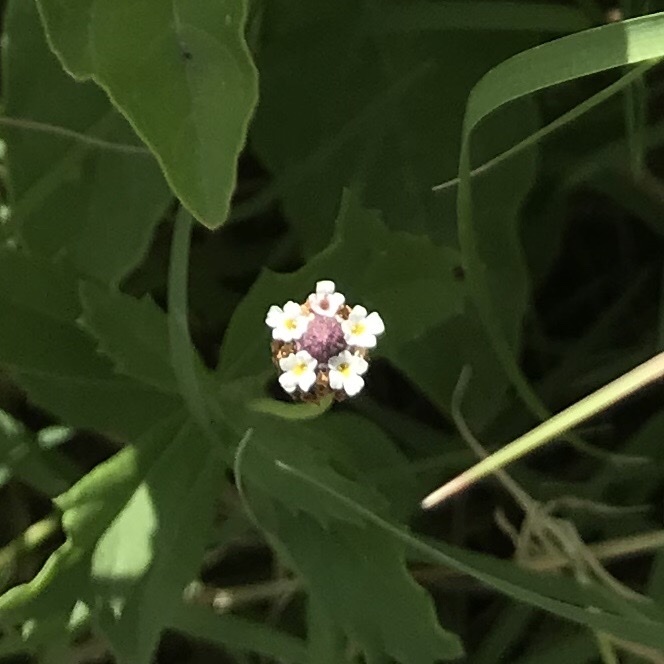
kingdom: Plantae
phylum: Tracheophyta
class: Magnoliopsida
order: Lamiales
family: Verbenaceae
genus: Phyla
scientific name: Phyla nodiflora
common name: Frogfruit
